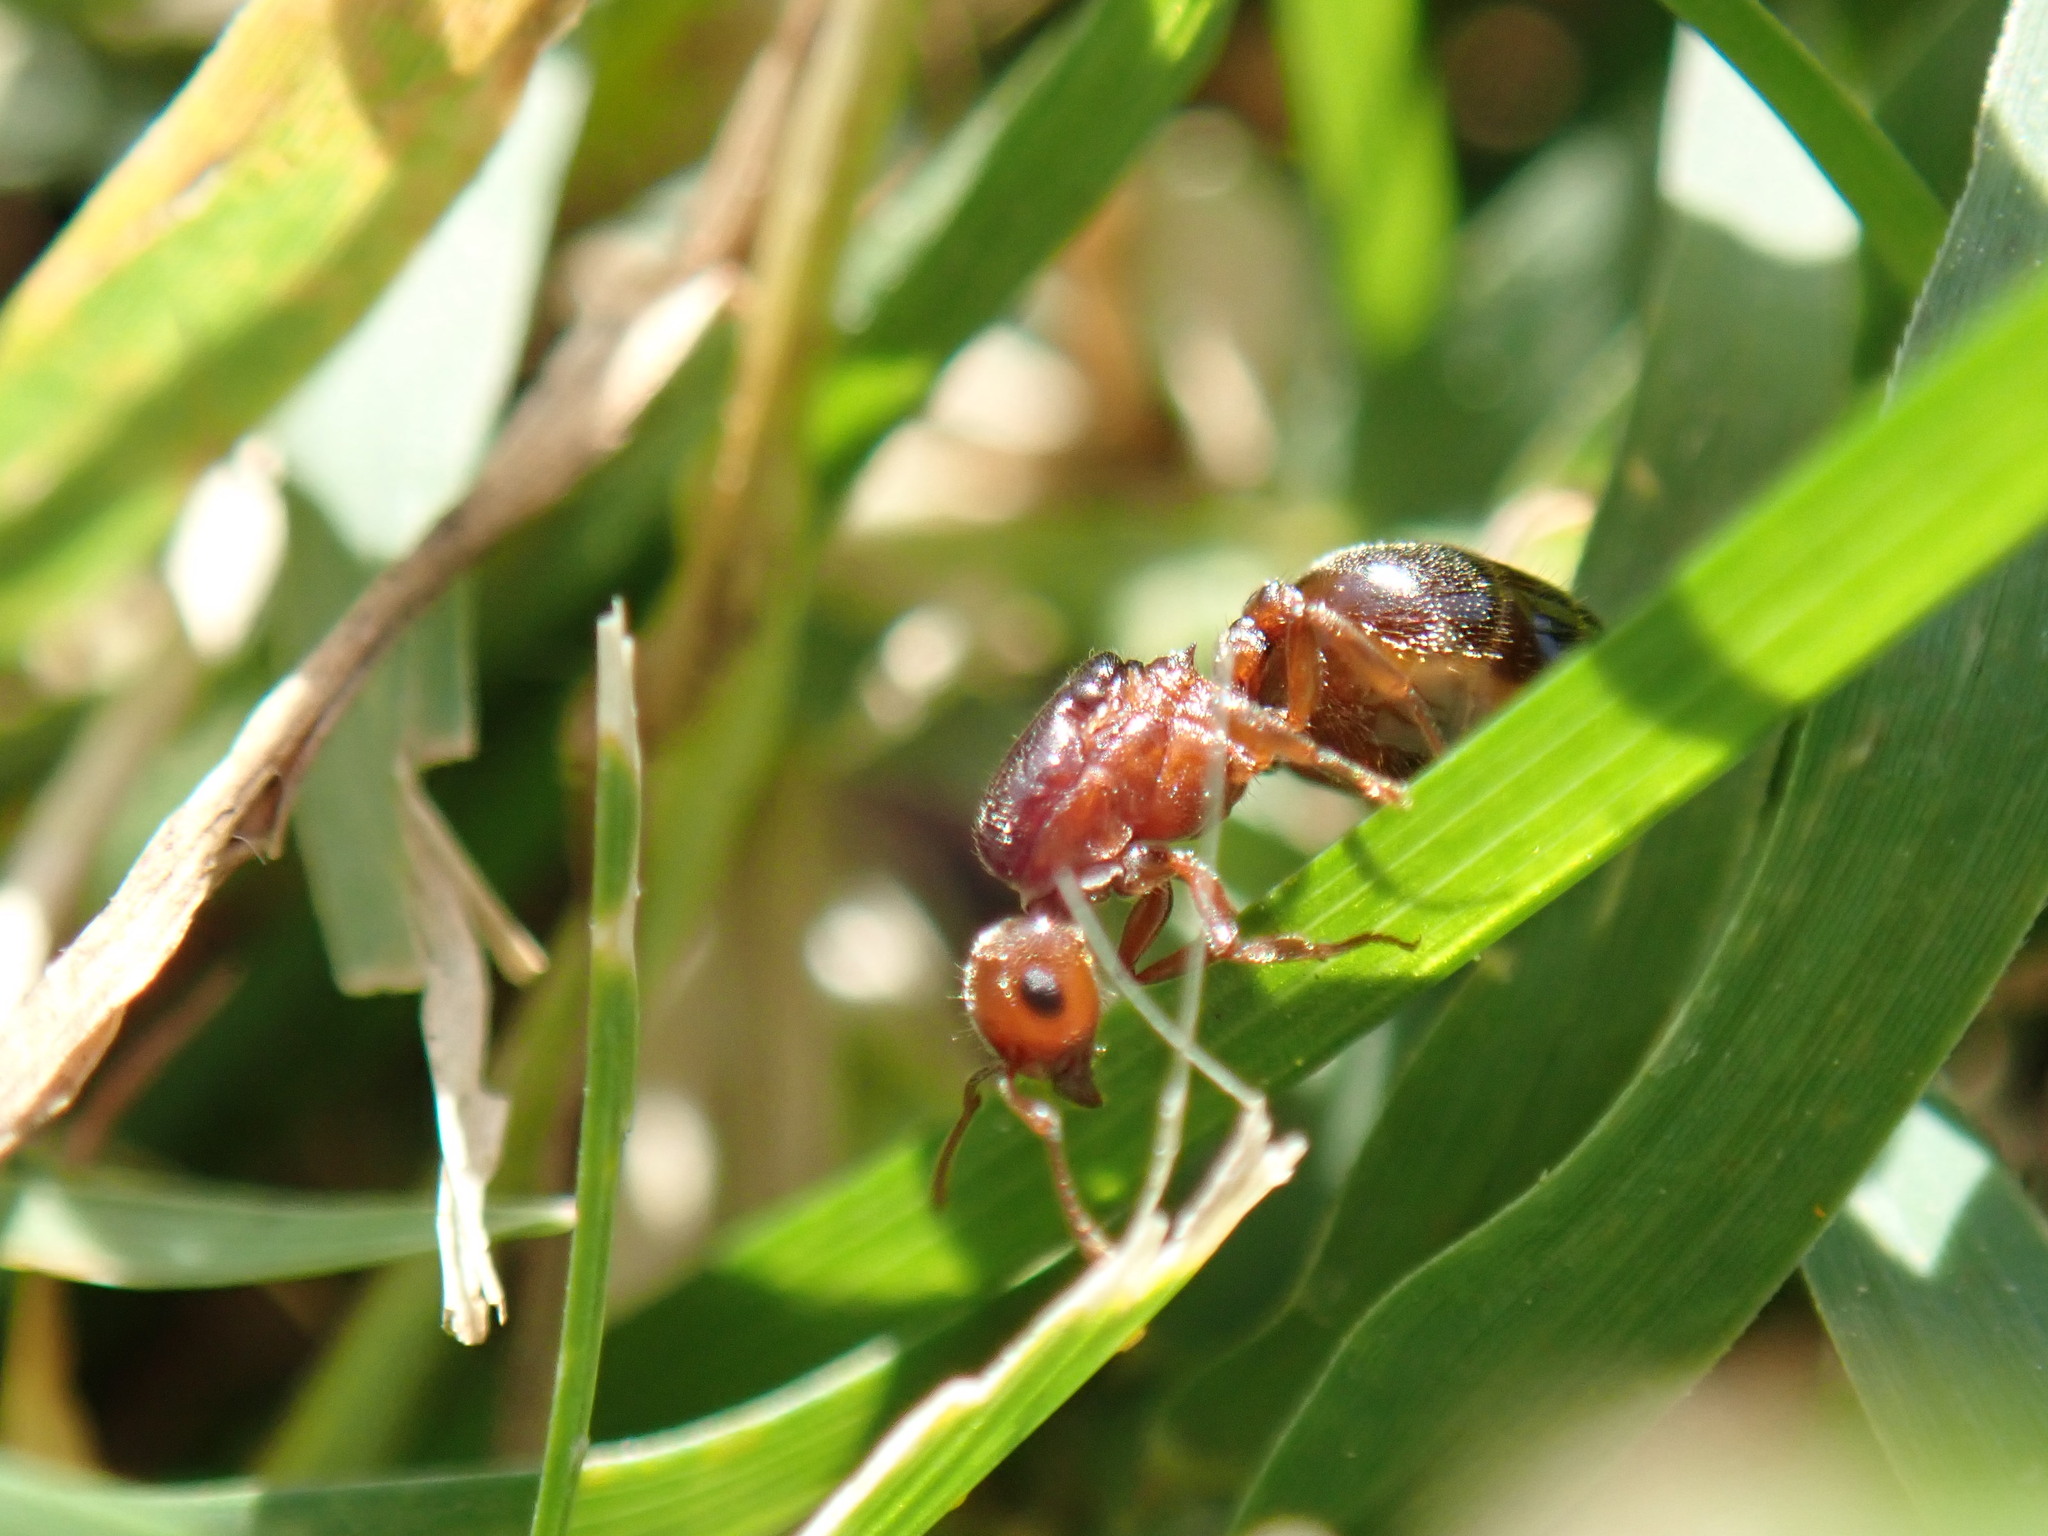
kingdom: Animalia
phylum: Arthropoda
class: Insecta
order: Hymenoptera
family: Formicidae
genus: Crematogaster
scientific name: Crematogaster schmidti
